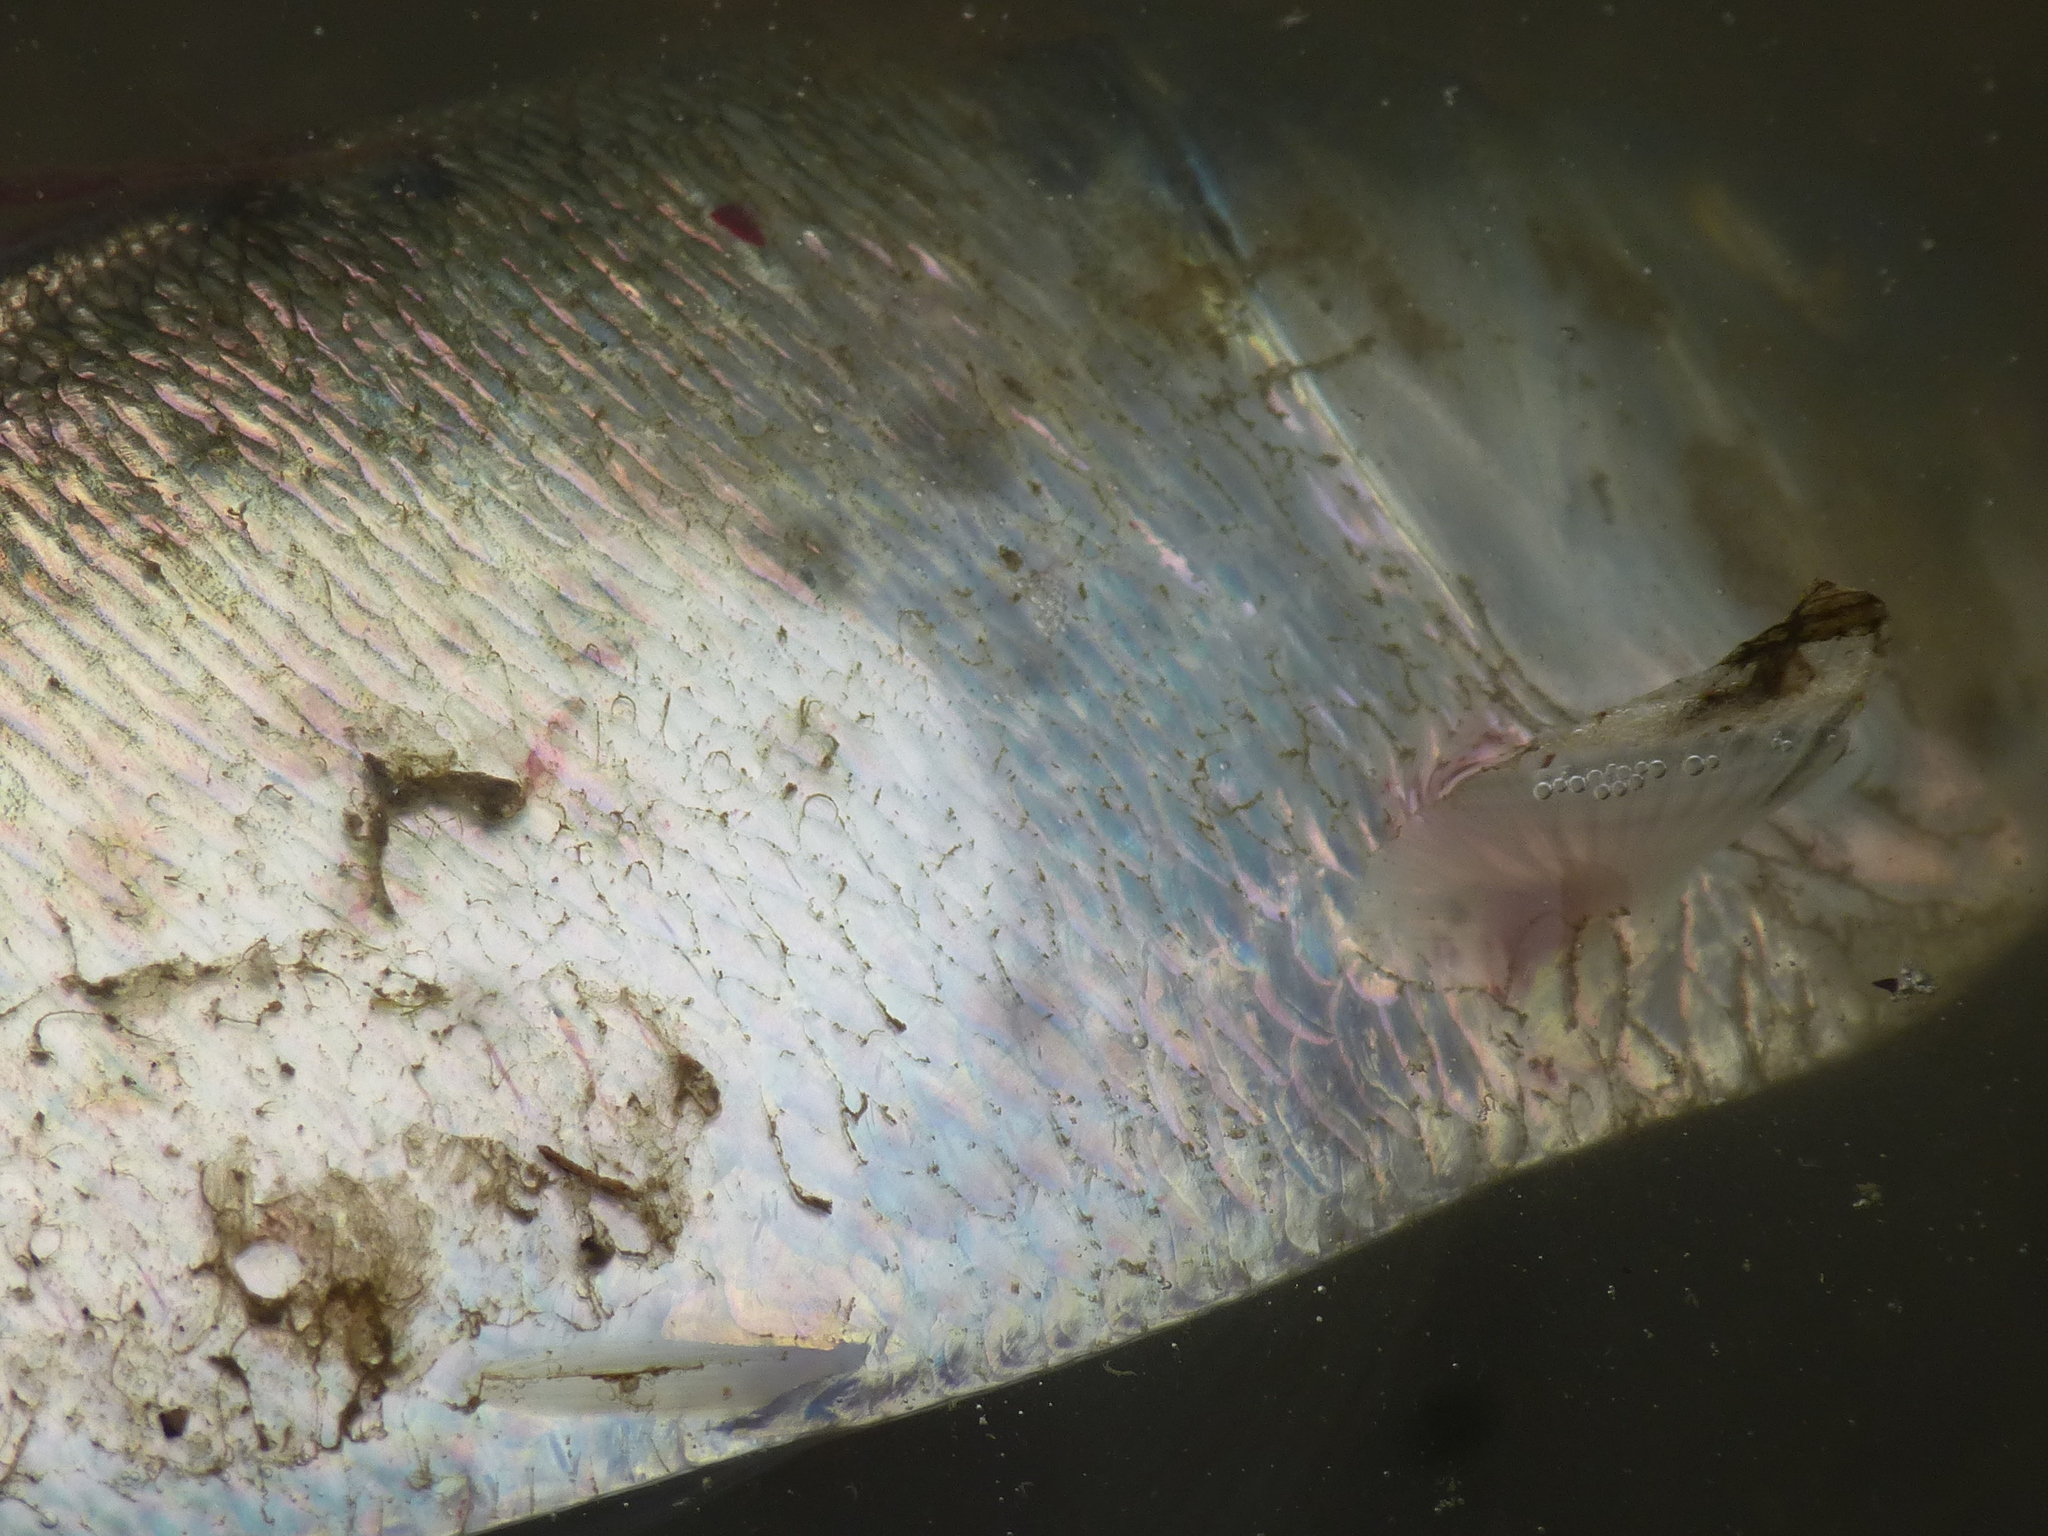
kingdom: Animalia
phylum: Chordata
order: Clupeiformes
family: Clupeidae
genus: Brevoortia
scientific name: Brevoortia tyrannus
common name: Atlantic menhaden
